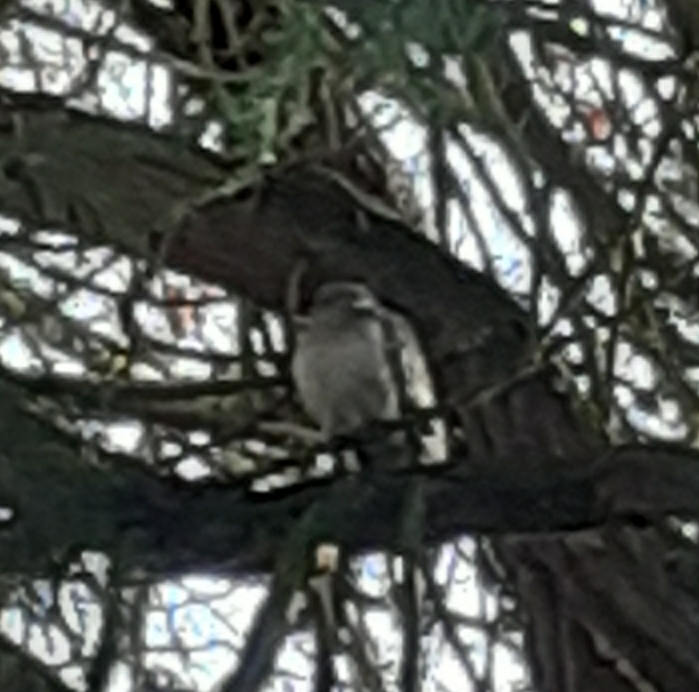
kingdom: Animalia
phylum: Chordata
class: Aves
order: Columbiformes
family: Columbidae
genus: Columba
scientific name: Columba palumbus
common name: Common wood pigeon
